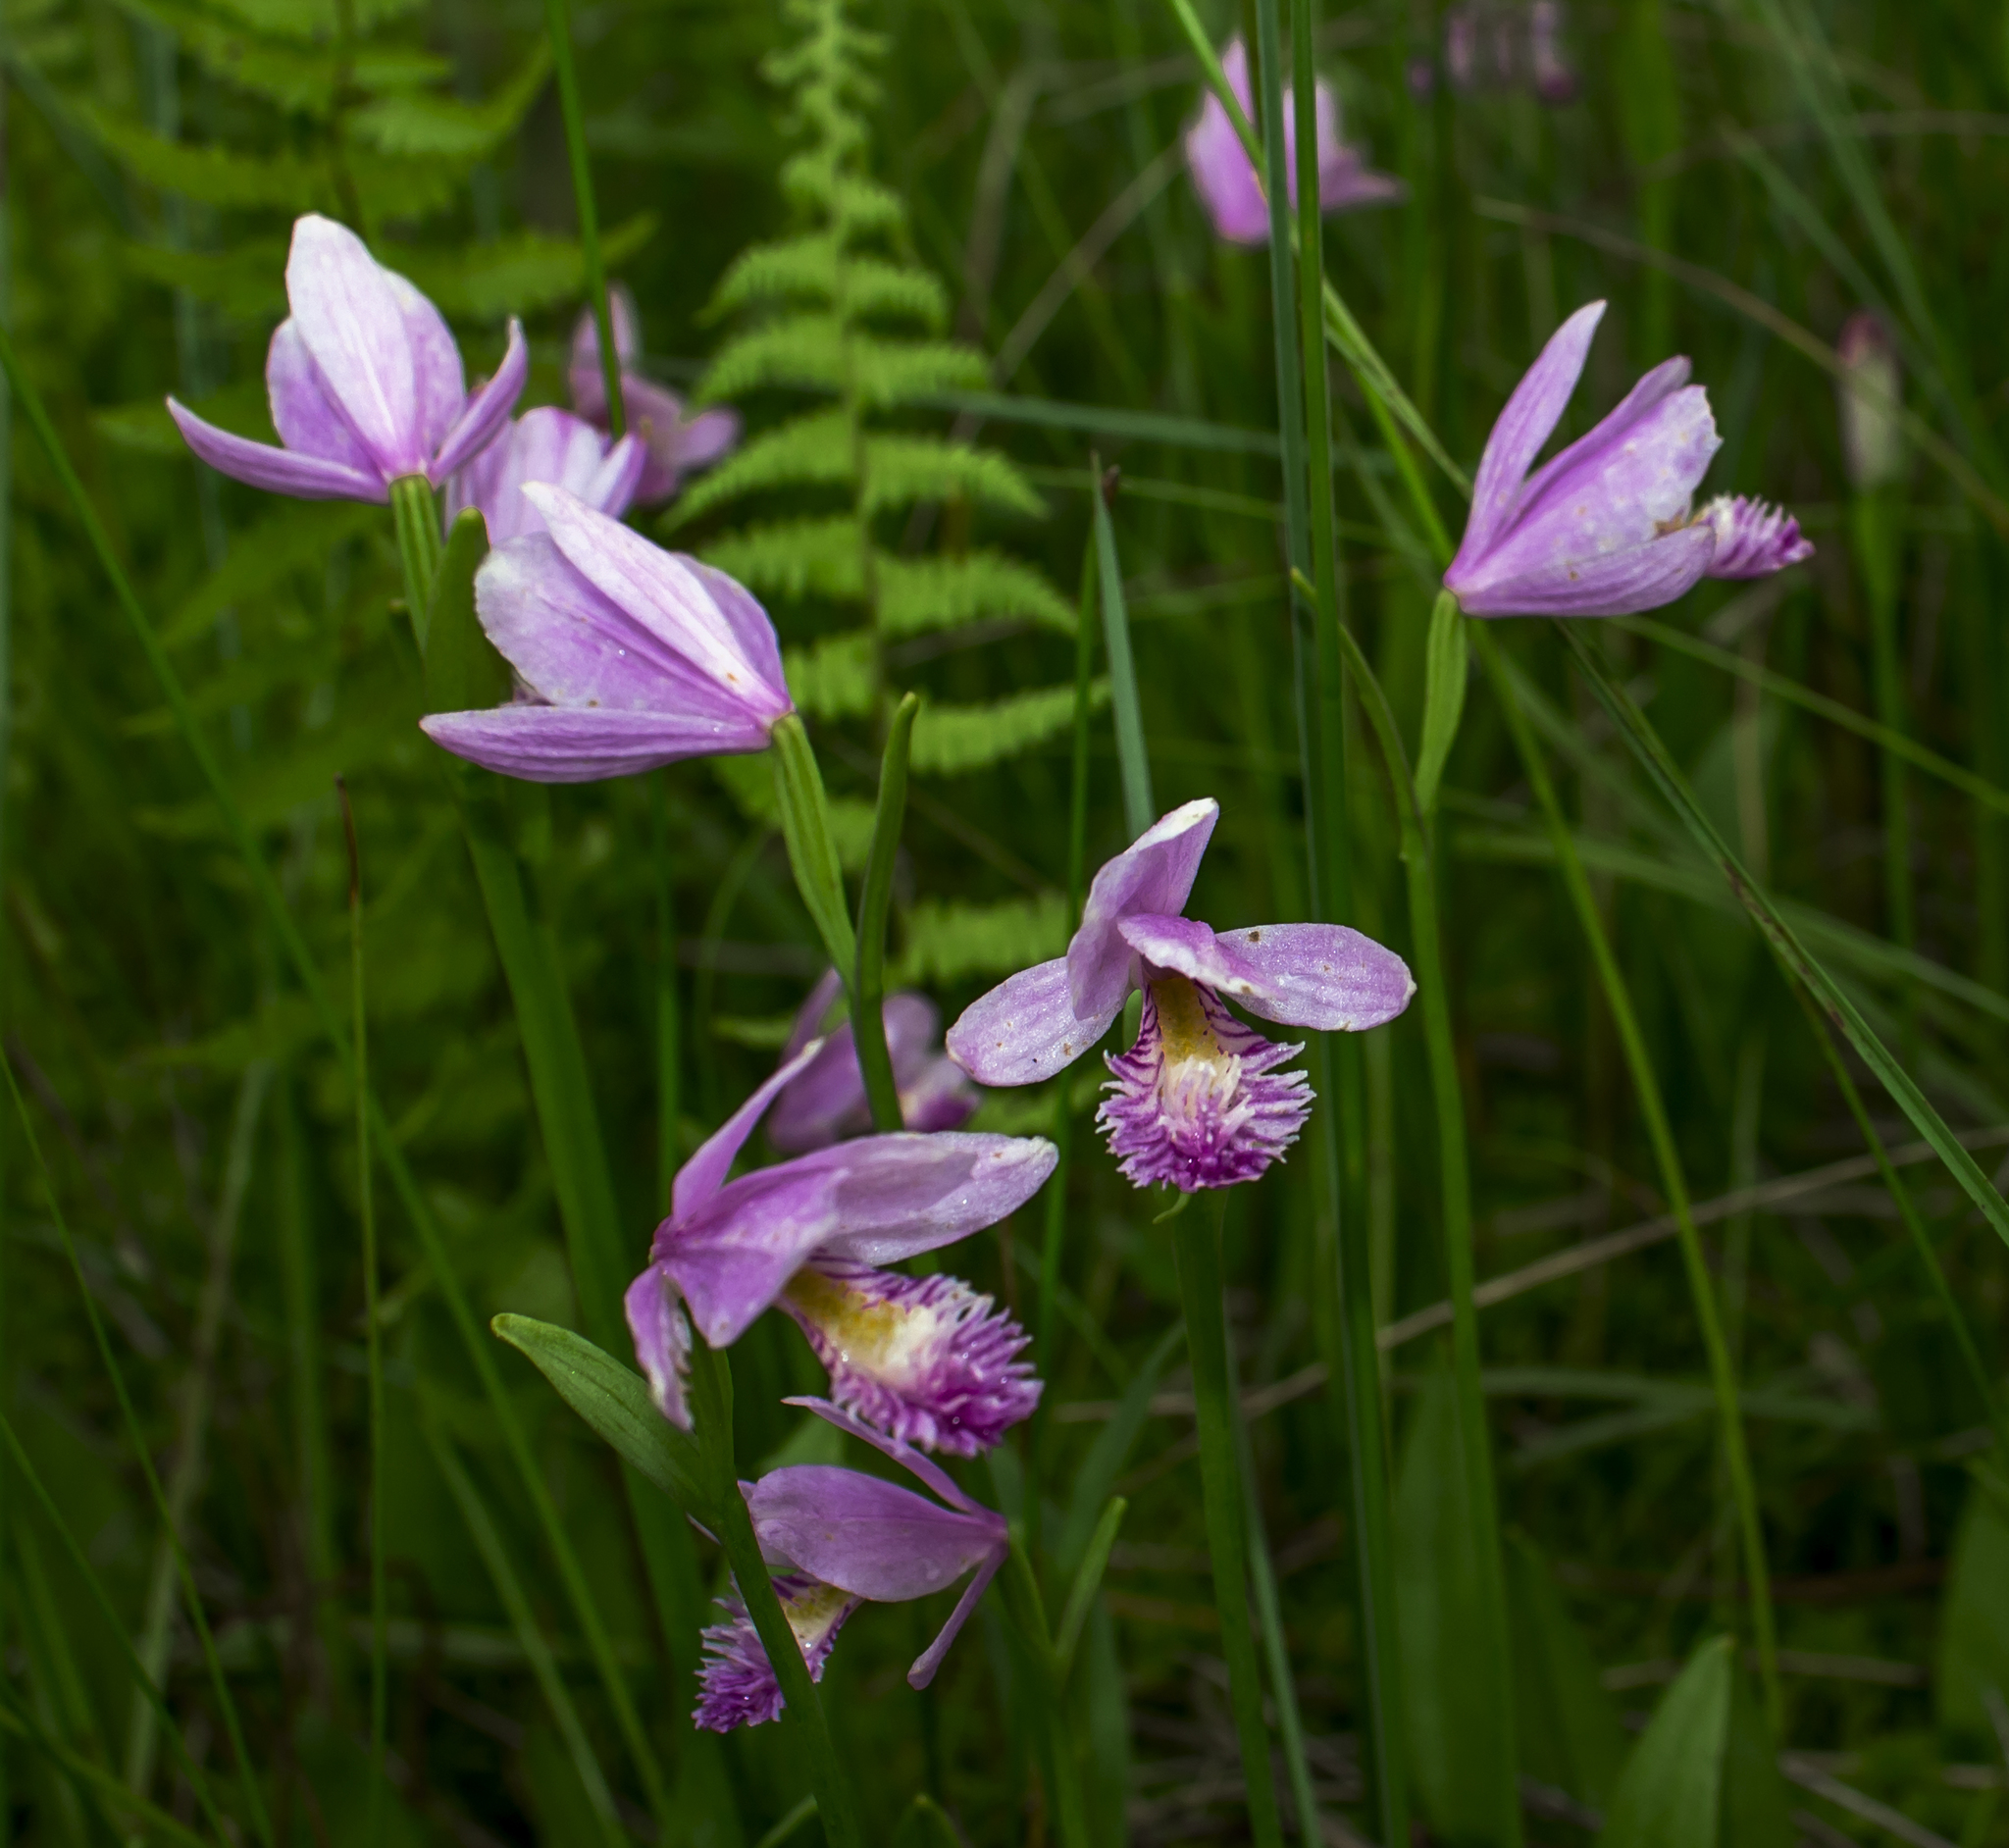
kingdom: Plantae
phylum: Tracheophyta
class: Liliopsida
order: Asparagales
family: Orchidaceae
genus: Pogonia
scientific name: Pogonia ophioglossoides
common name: Rose pogonia
